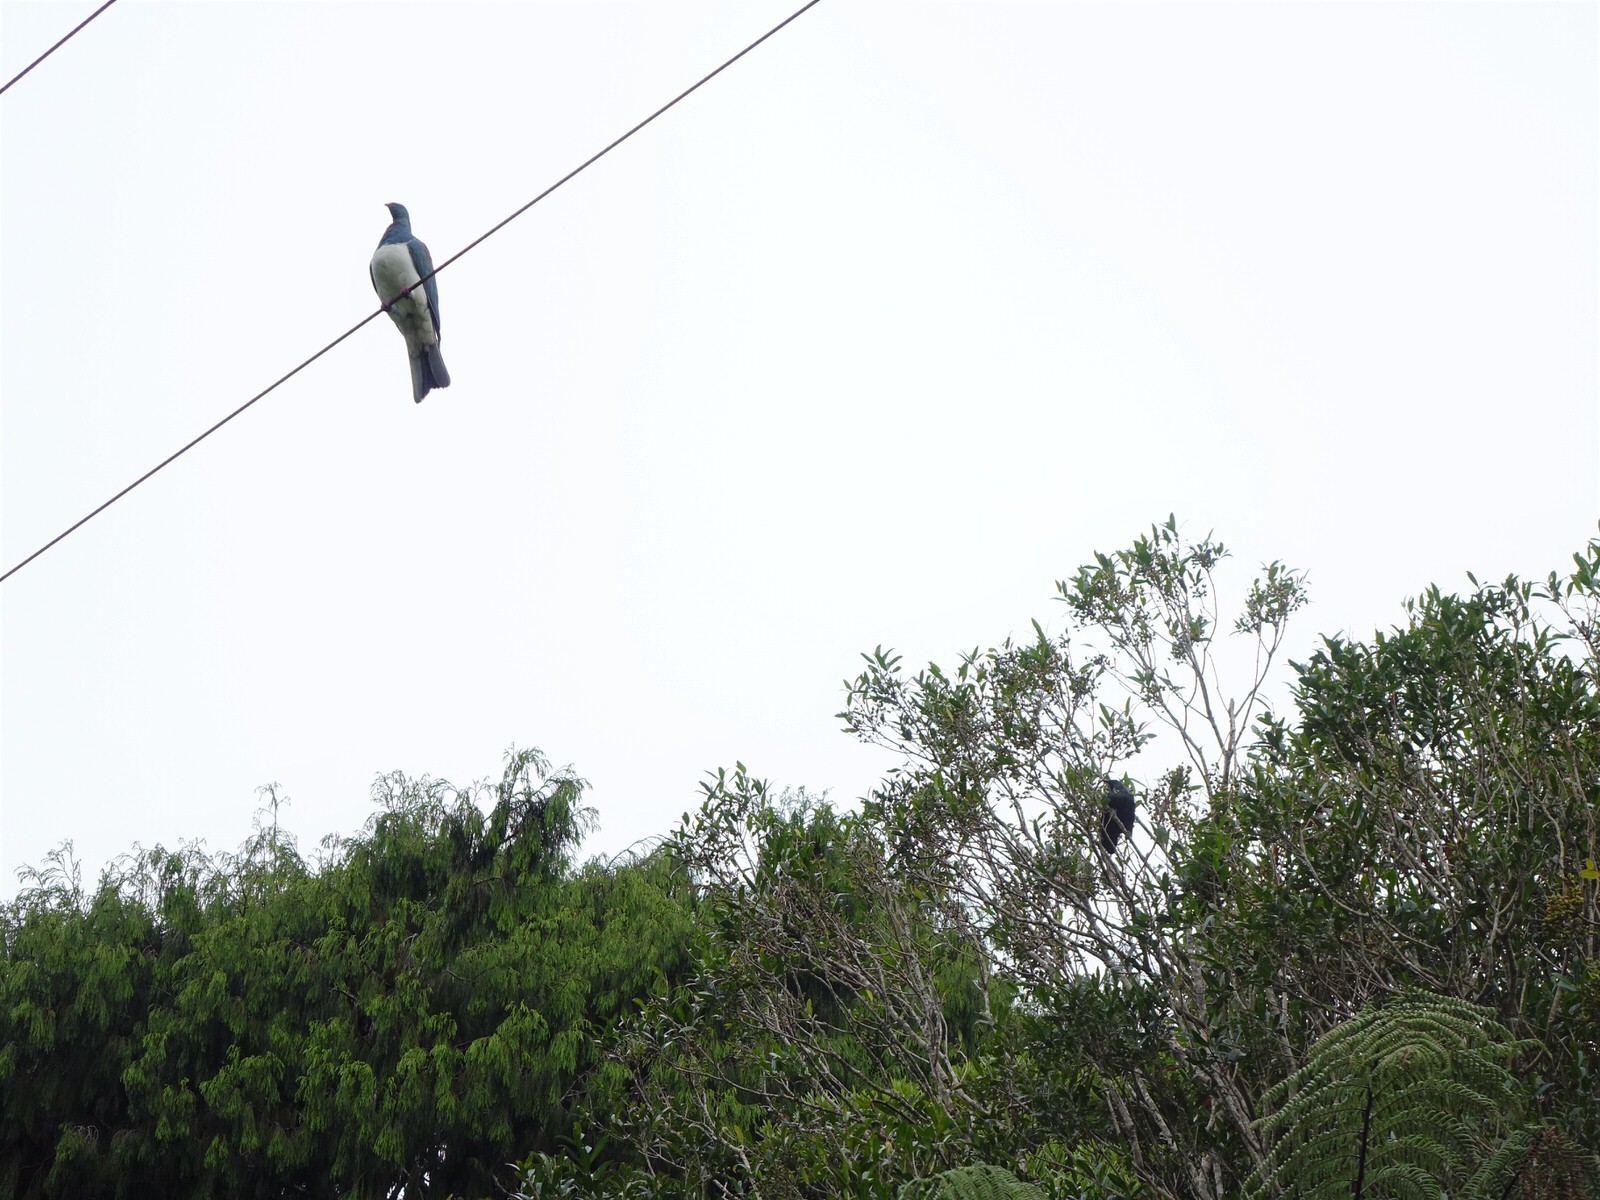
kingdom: Animalia
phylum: Chordata
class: Aves
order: Columbiformes
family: Columbidae
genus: Hemiphaga
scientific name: Hemiphaga novaeseelandiae
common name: New zealand pigeon
